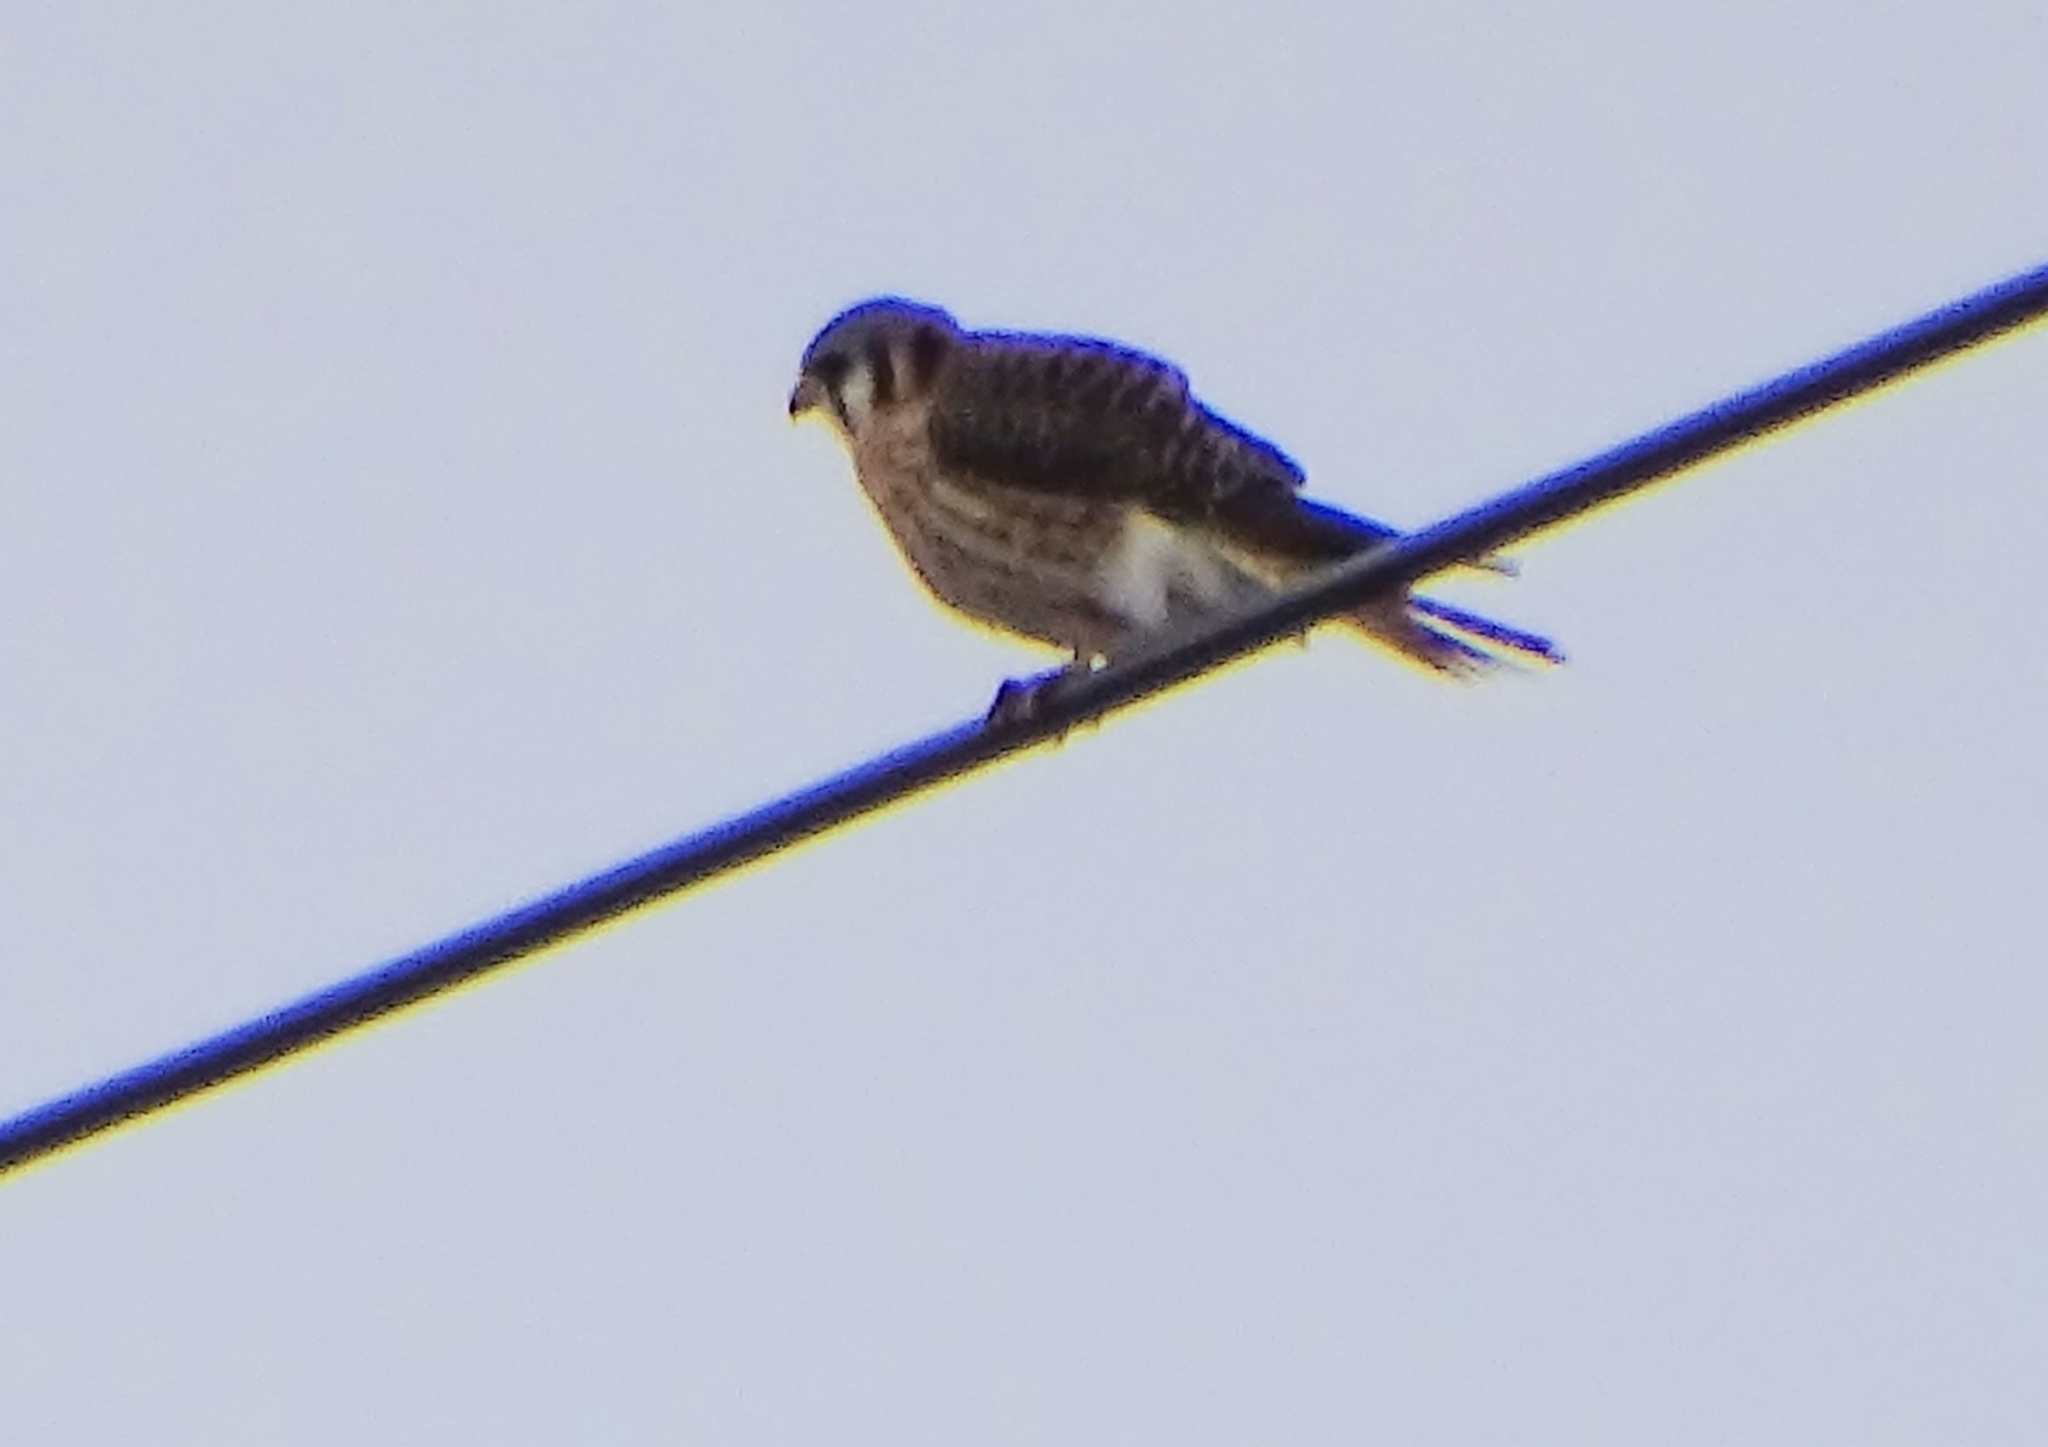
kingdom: Animalia
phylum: Chordata
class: Aves
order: Falconiformes
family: Falconidae
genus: Falco
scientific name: Falco sparverius
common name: American kestrel
